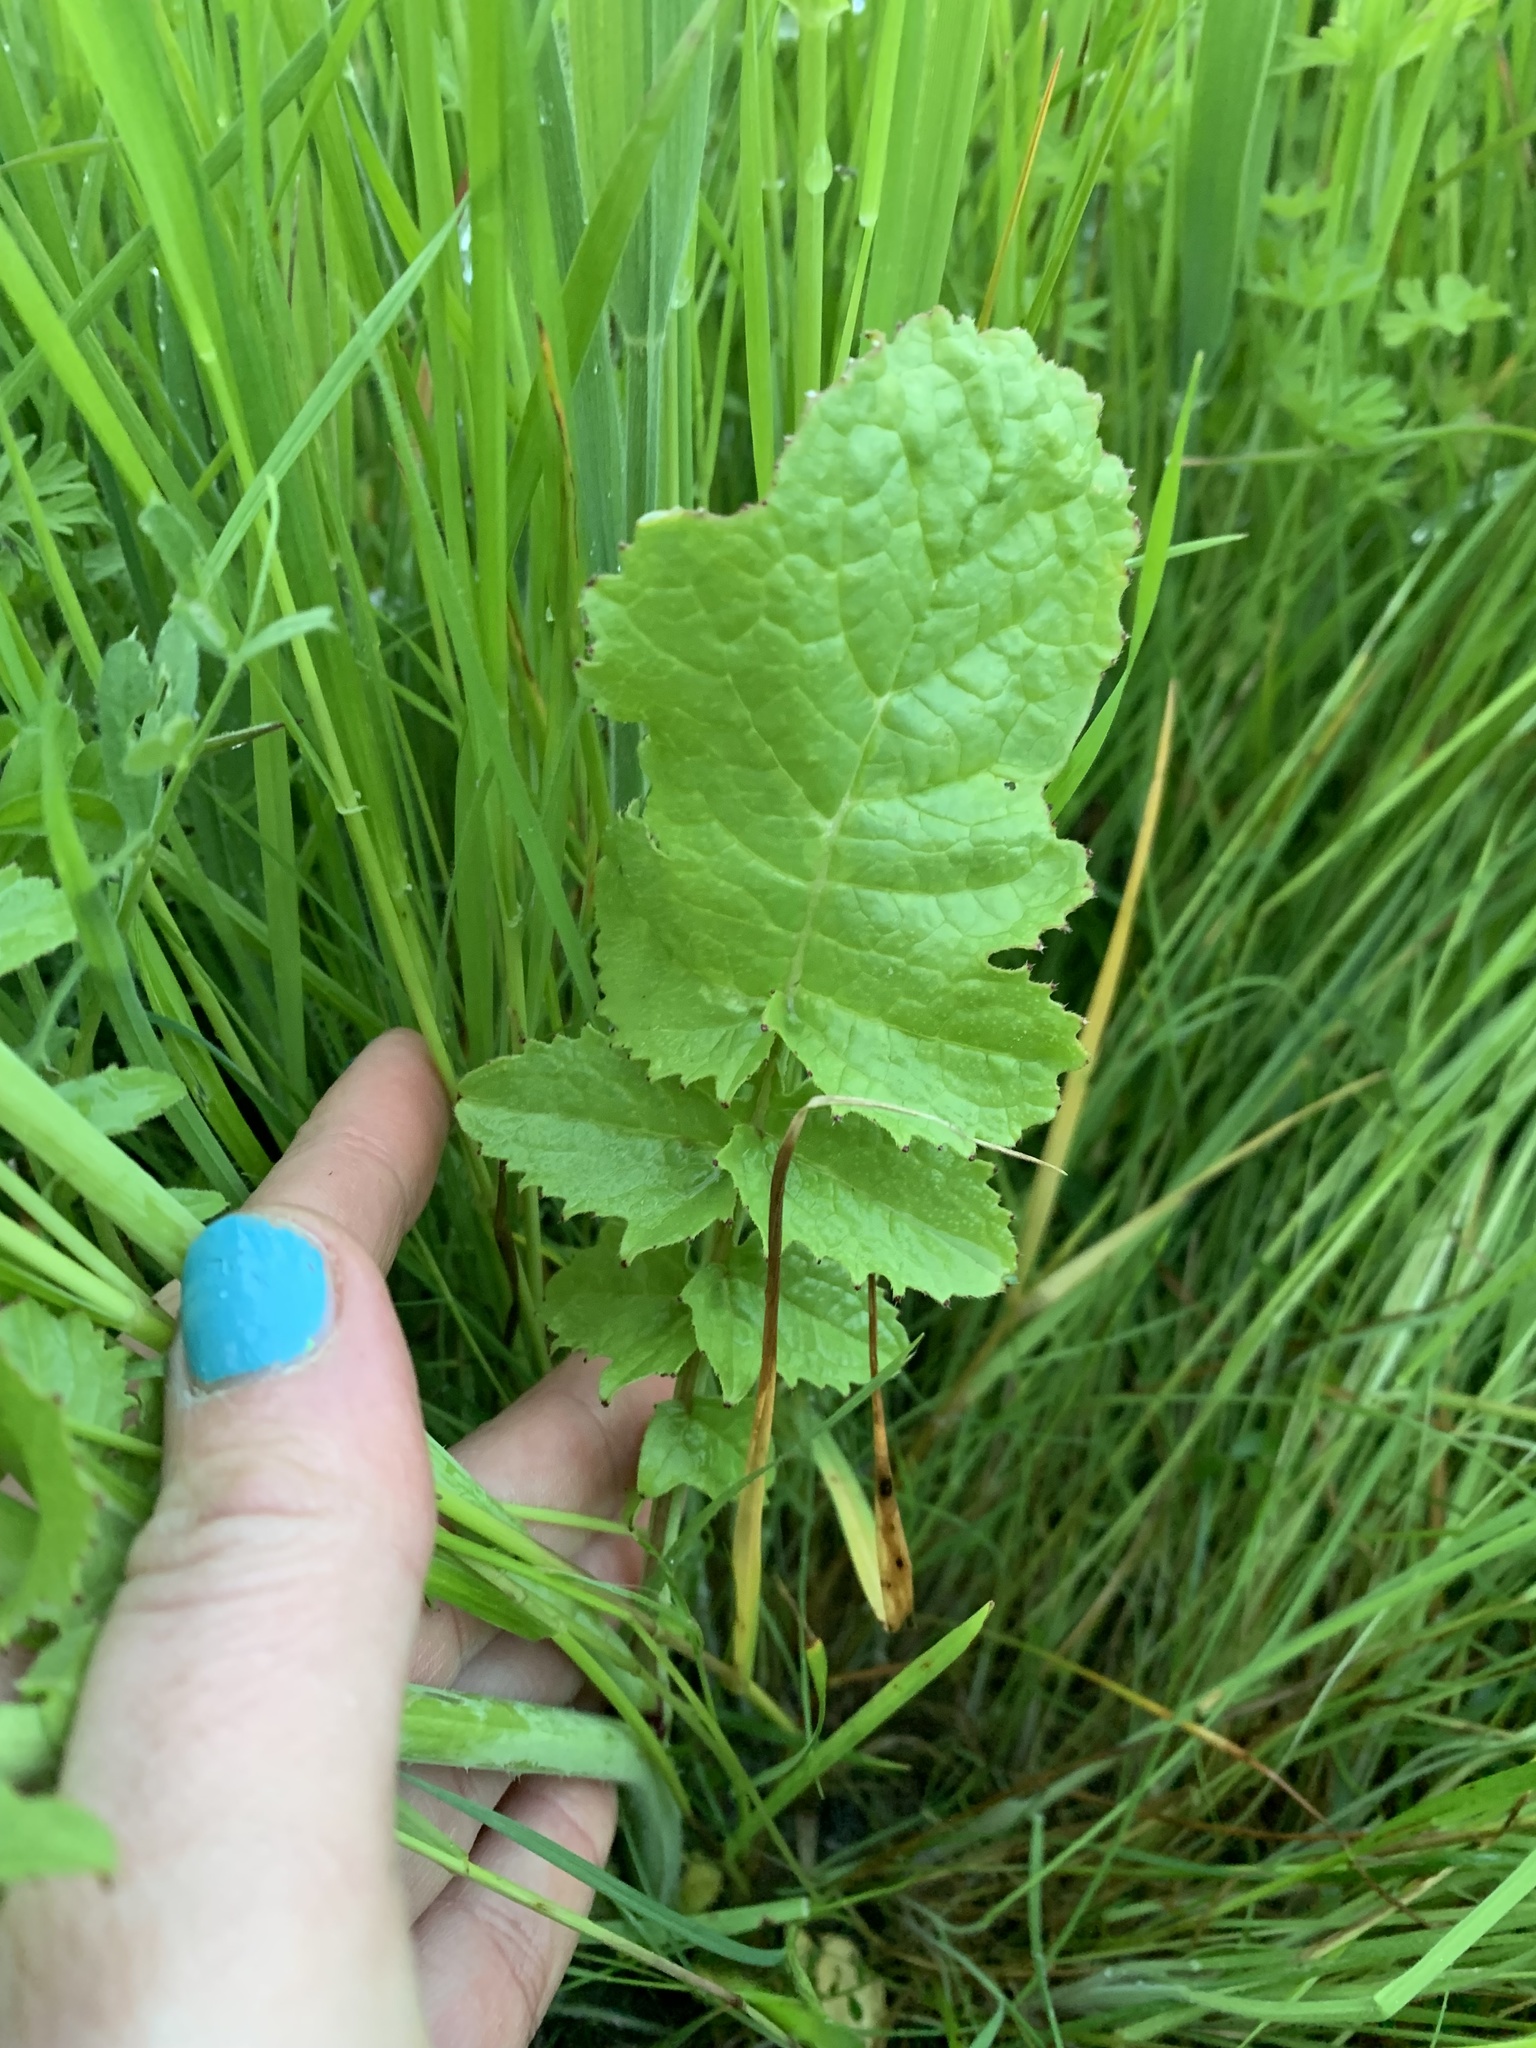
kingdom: Plantae
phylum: Tracheophyta
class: Magnoliopsida
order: Brassicales
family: Brassicaceae
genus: Raphanus
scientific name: Raphanus sativus
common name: Cultivated radish
